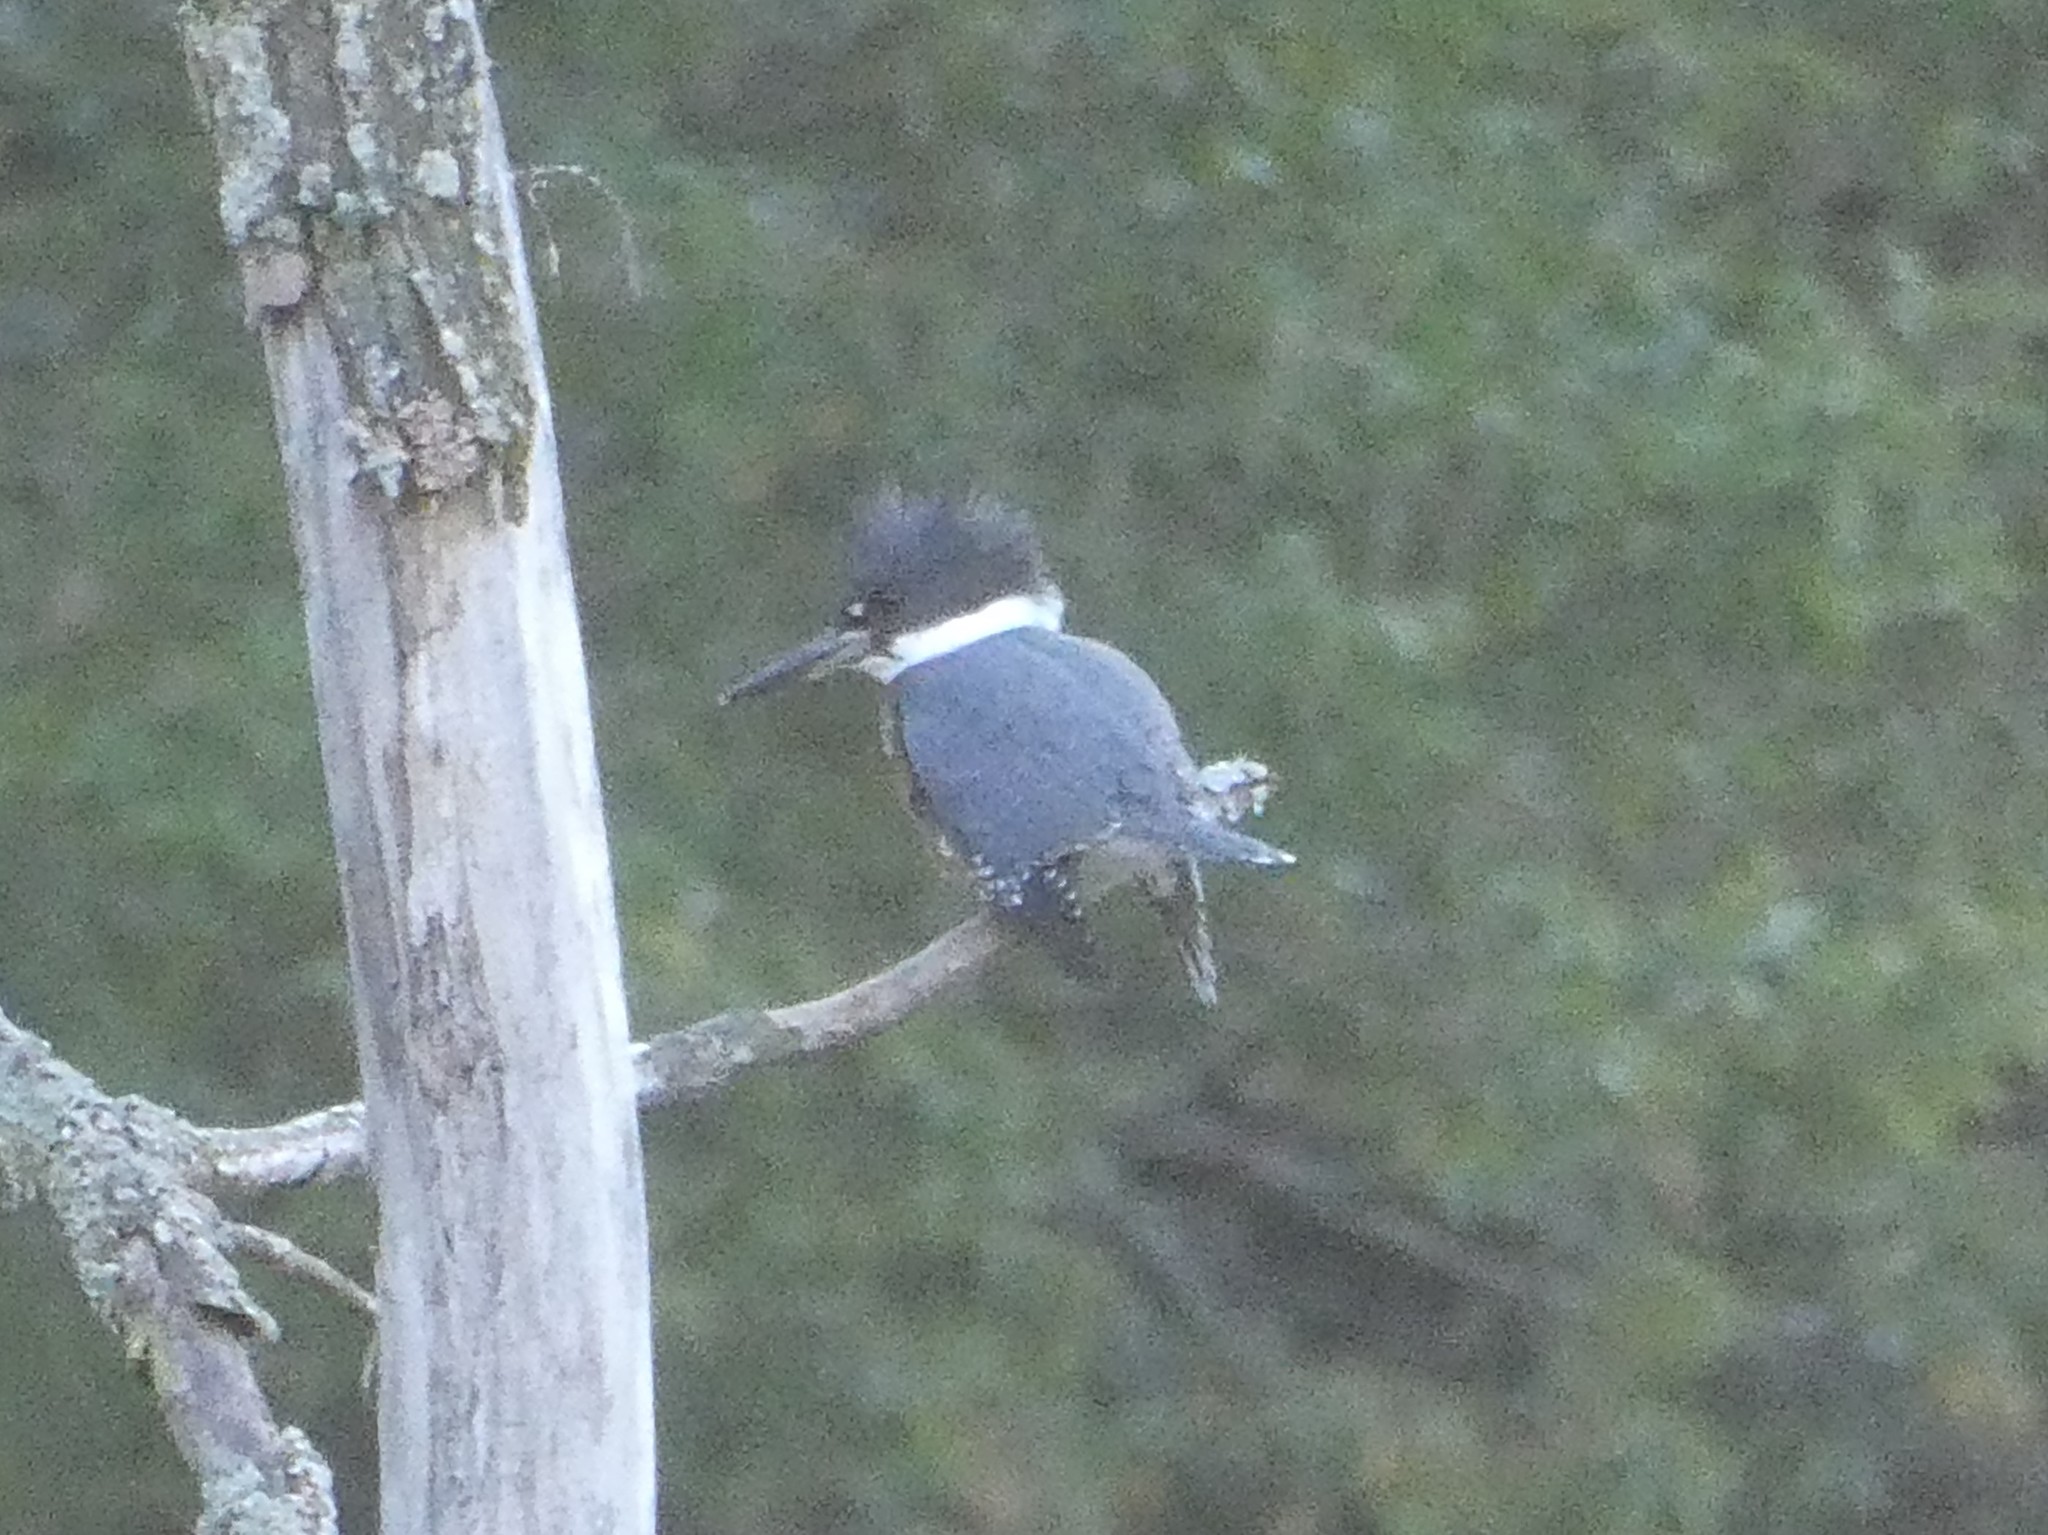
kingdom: Animalia
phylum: Chordata
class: Aves
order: Coraciiformes
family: Alcedinidae
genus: Megaceryle
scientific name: Megaceryle alcyon
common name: Belted kingfisher
